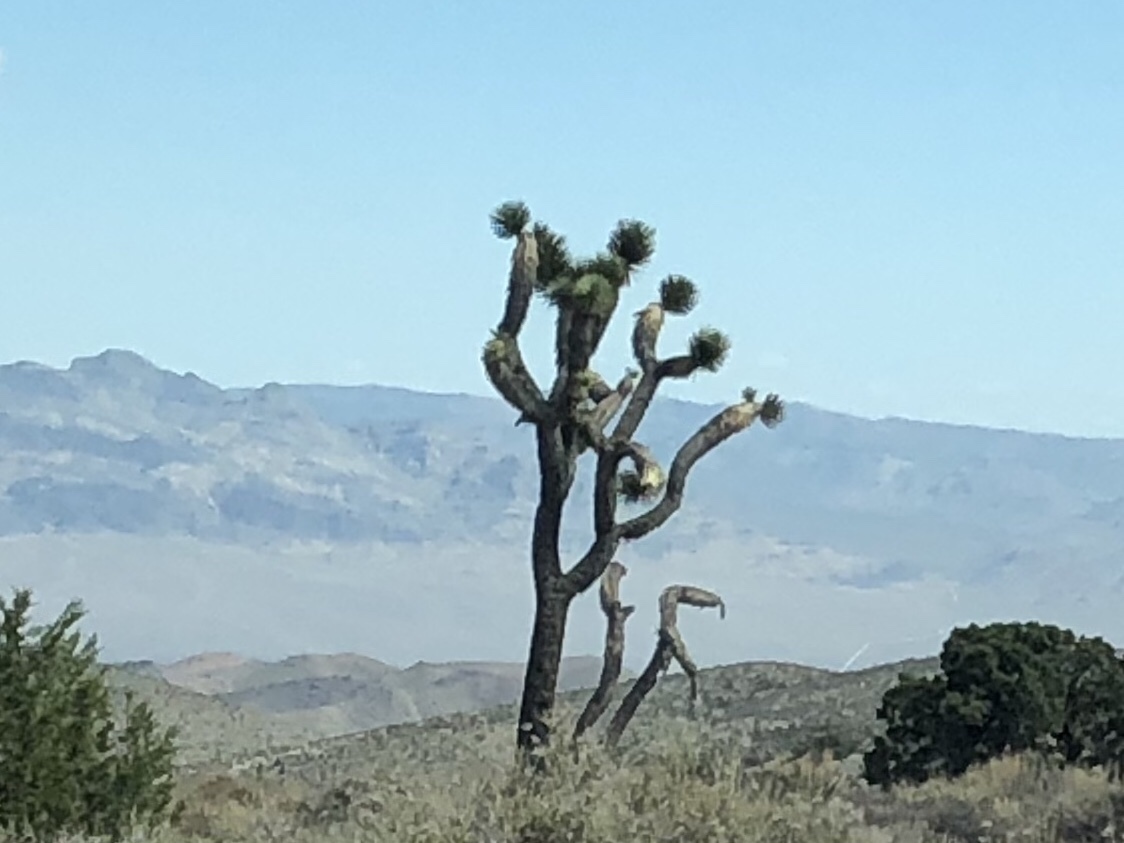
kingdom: Plantae
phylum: Tracheophyta
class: Liliopsida
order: Asparagales
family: Asparagaceae
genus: Yucca
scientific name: Yucca brevifolia
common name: Joshua tree
